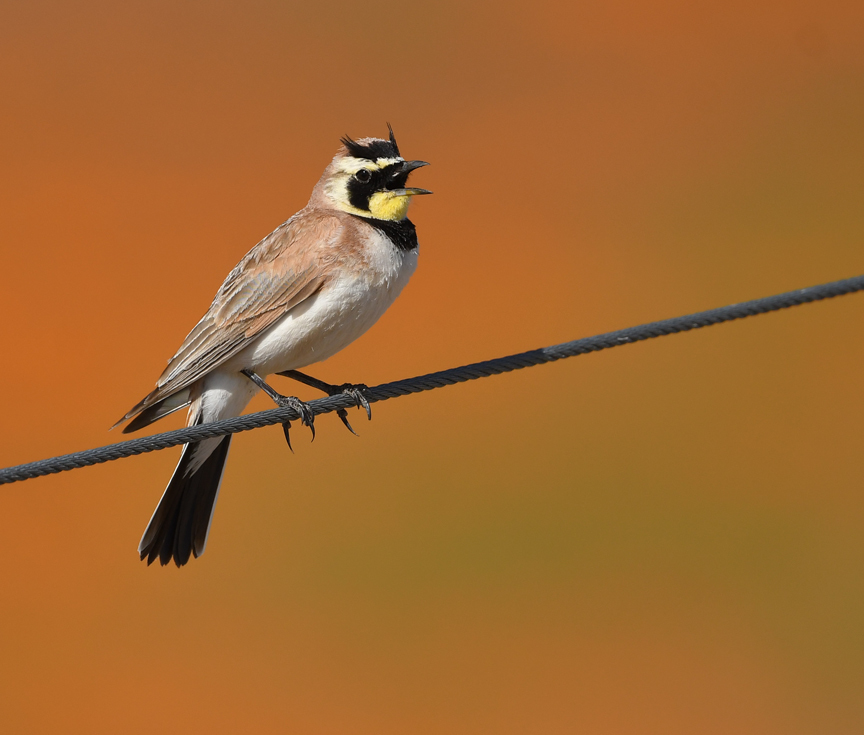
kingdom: Animalia
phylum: Chordata
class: Aves
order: Passeriformes
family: Alaudidae
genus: Eremophila
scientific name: Eremophila alpestris
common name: Horned lark
